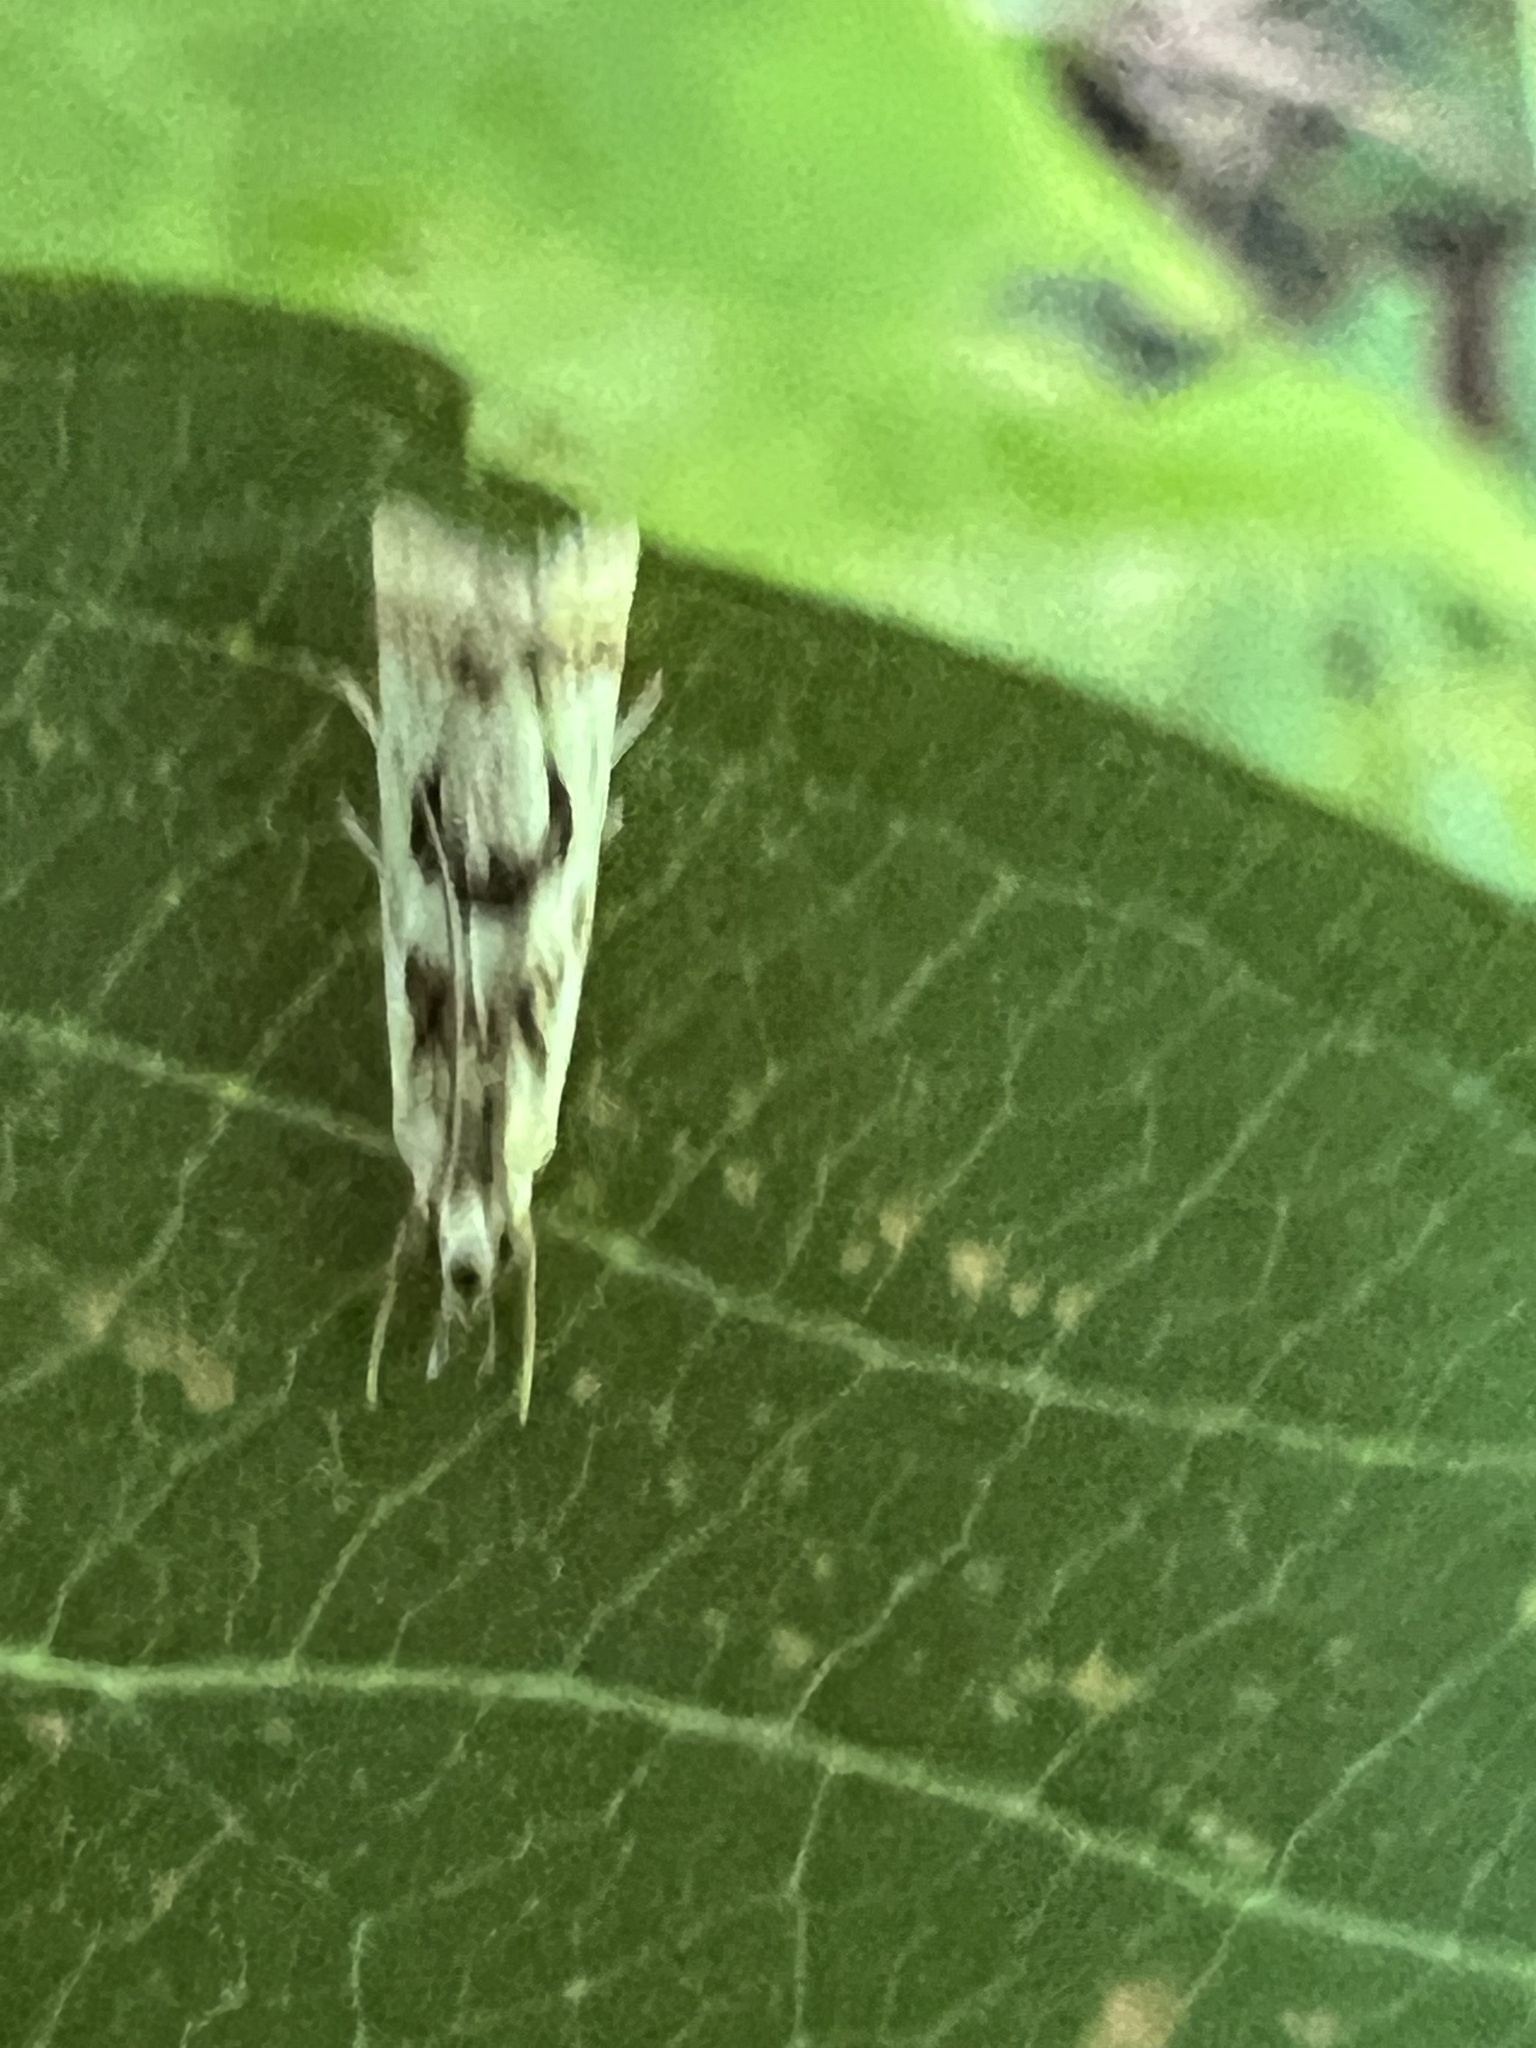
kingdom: Animalia
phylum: Arthropoda
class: Insecta
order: Lepidoptera
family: Crambidae
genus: Microcrambus
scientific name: Microcrambus elegans
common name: Elegant grass-veneer
